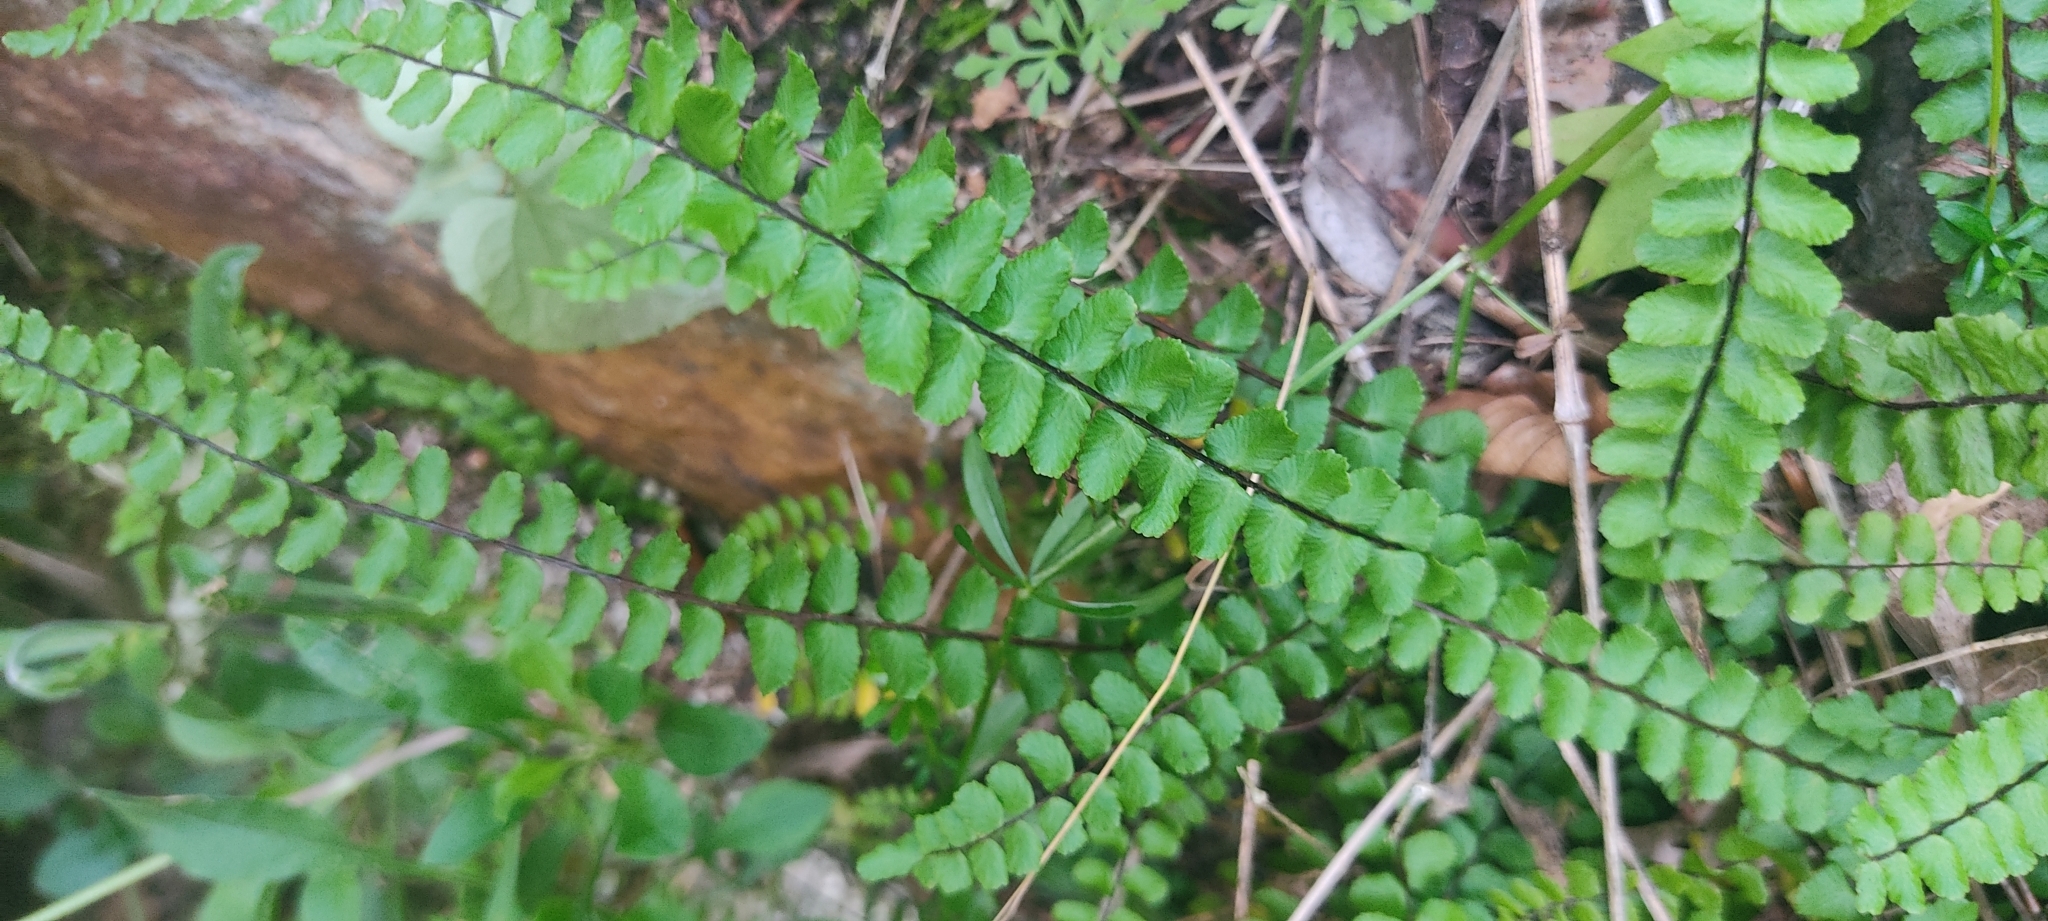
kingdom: Plantae
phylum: Tracheophyta
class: Polypodiopsida
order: Polypodiales
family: Aspleniaceae
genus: Asplenium
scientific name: Asplenium trichomanes
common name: Maidenhair spleenwort
